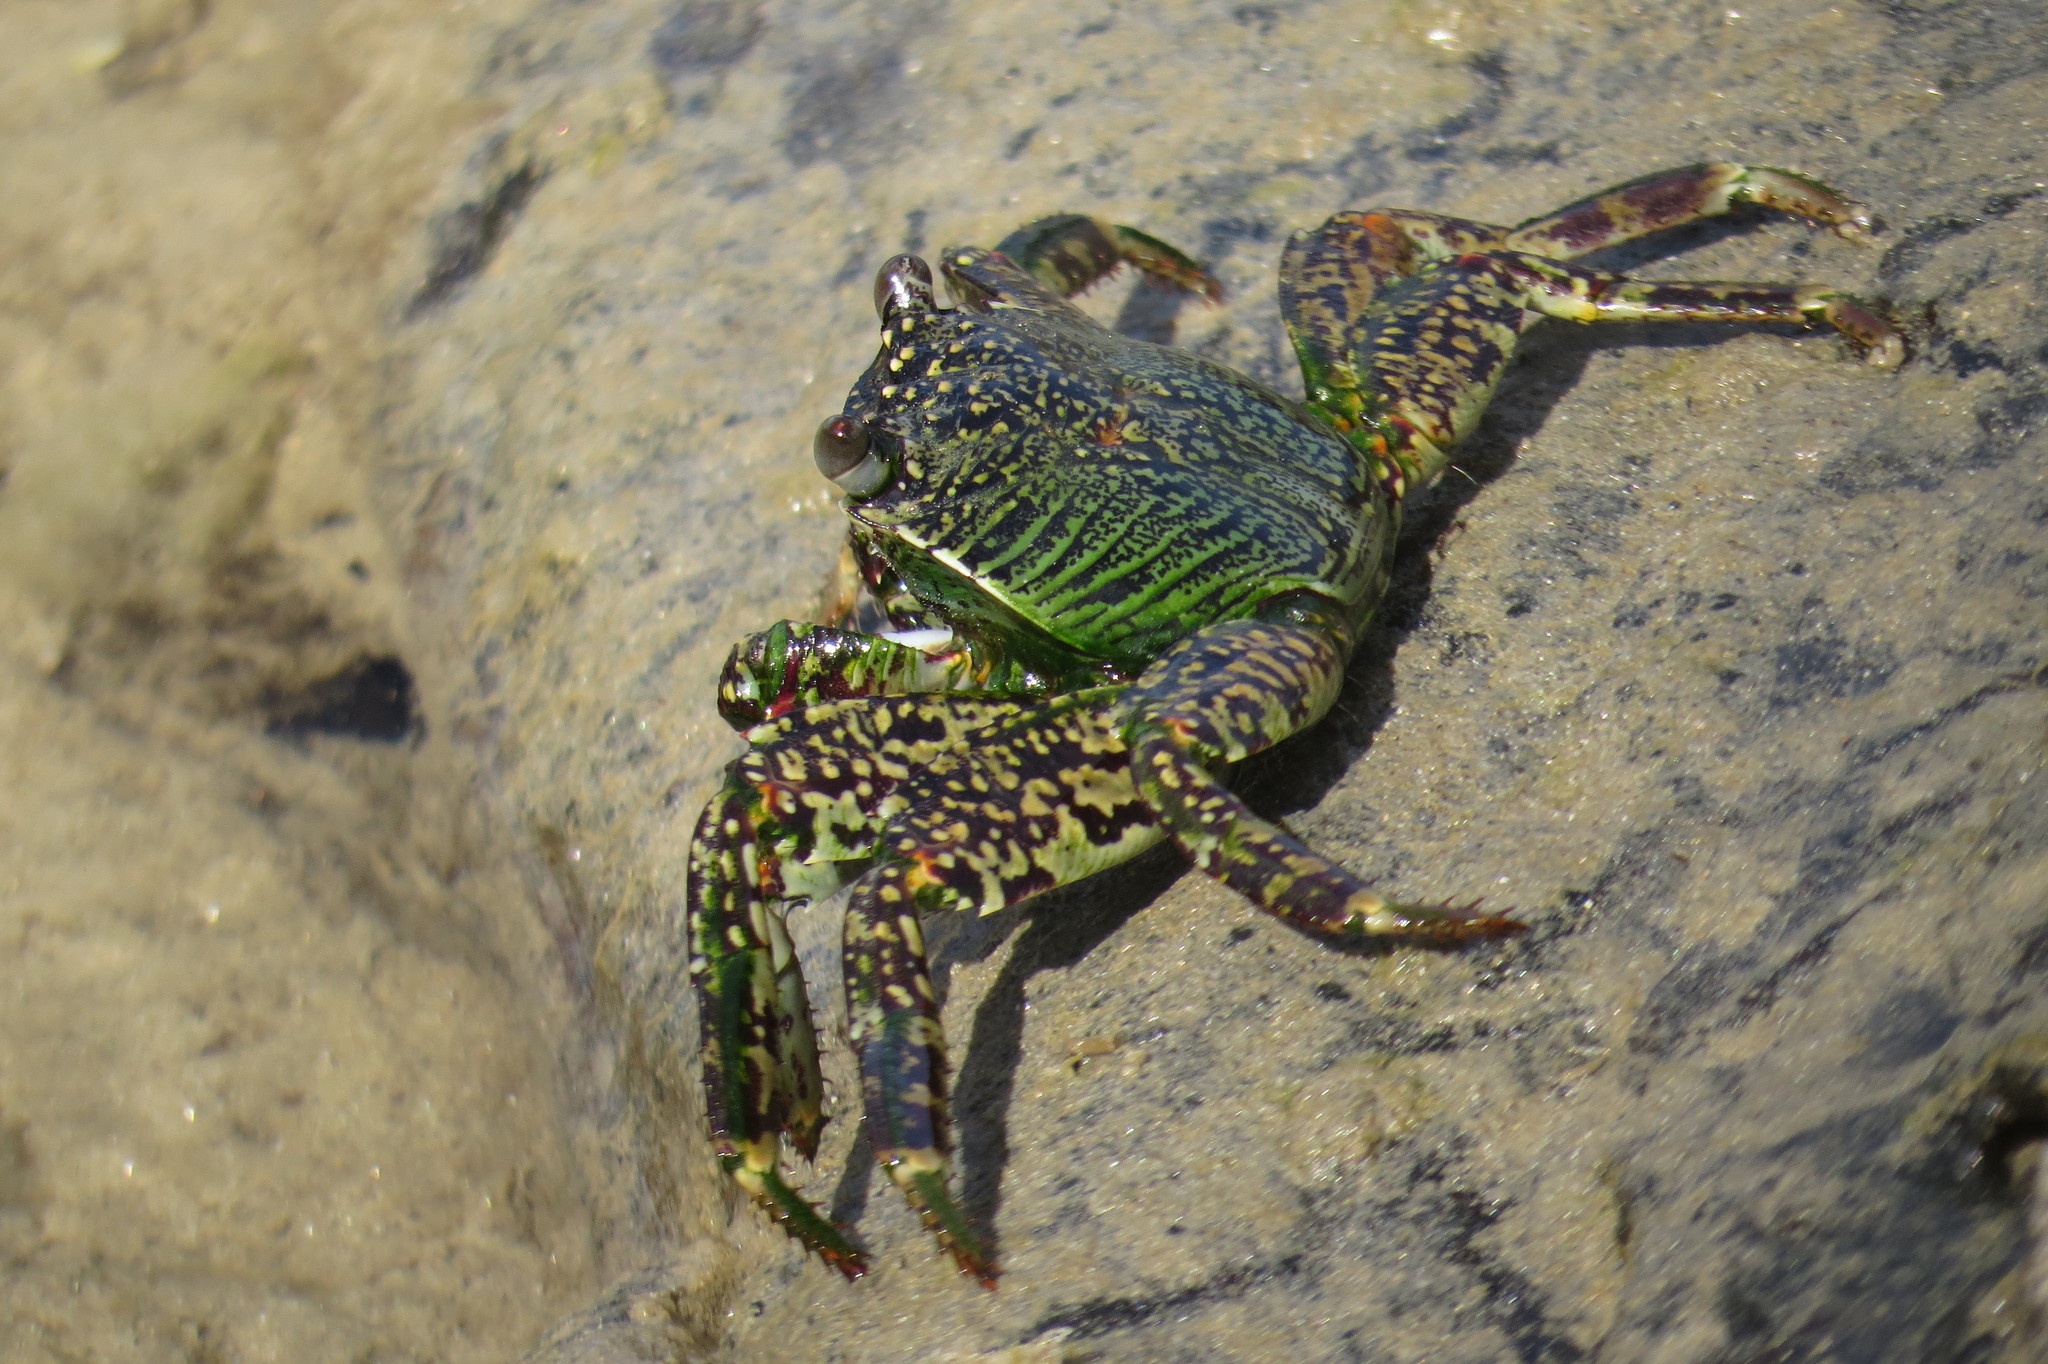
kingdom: Animalia
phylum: Arthropoda
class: Malacostraca
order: Decapoda
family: Grapsidae
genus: Grapsus
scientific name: Grapsus albolineatus
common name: Mottled lightfoot crab
